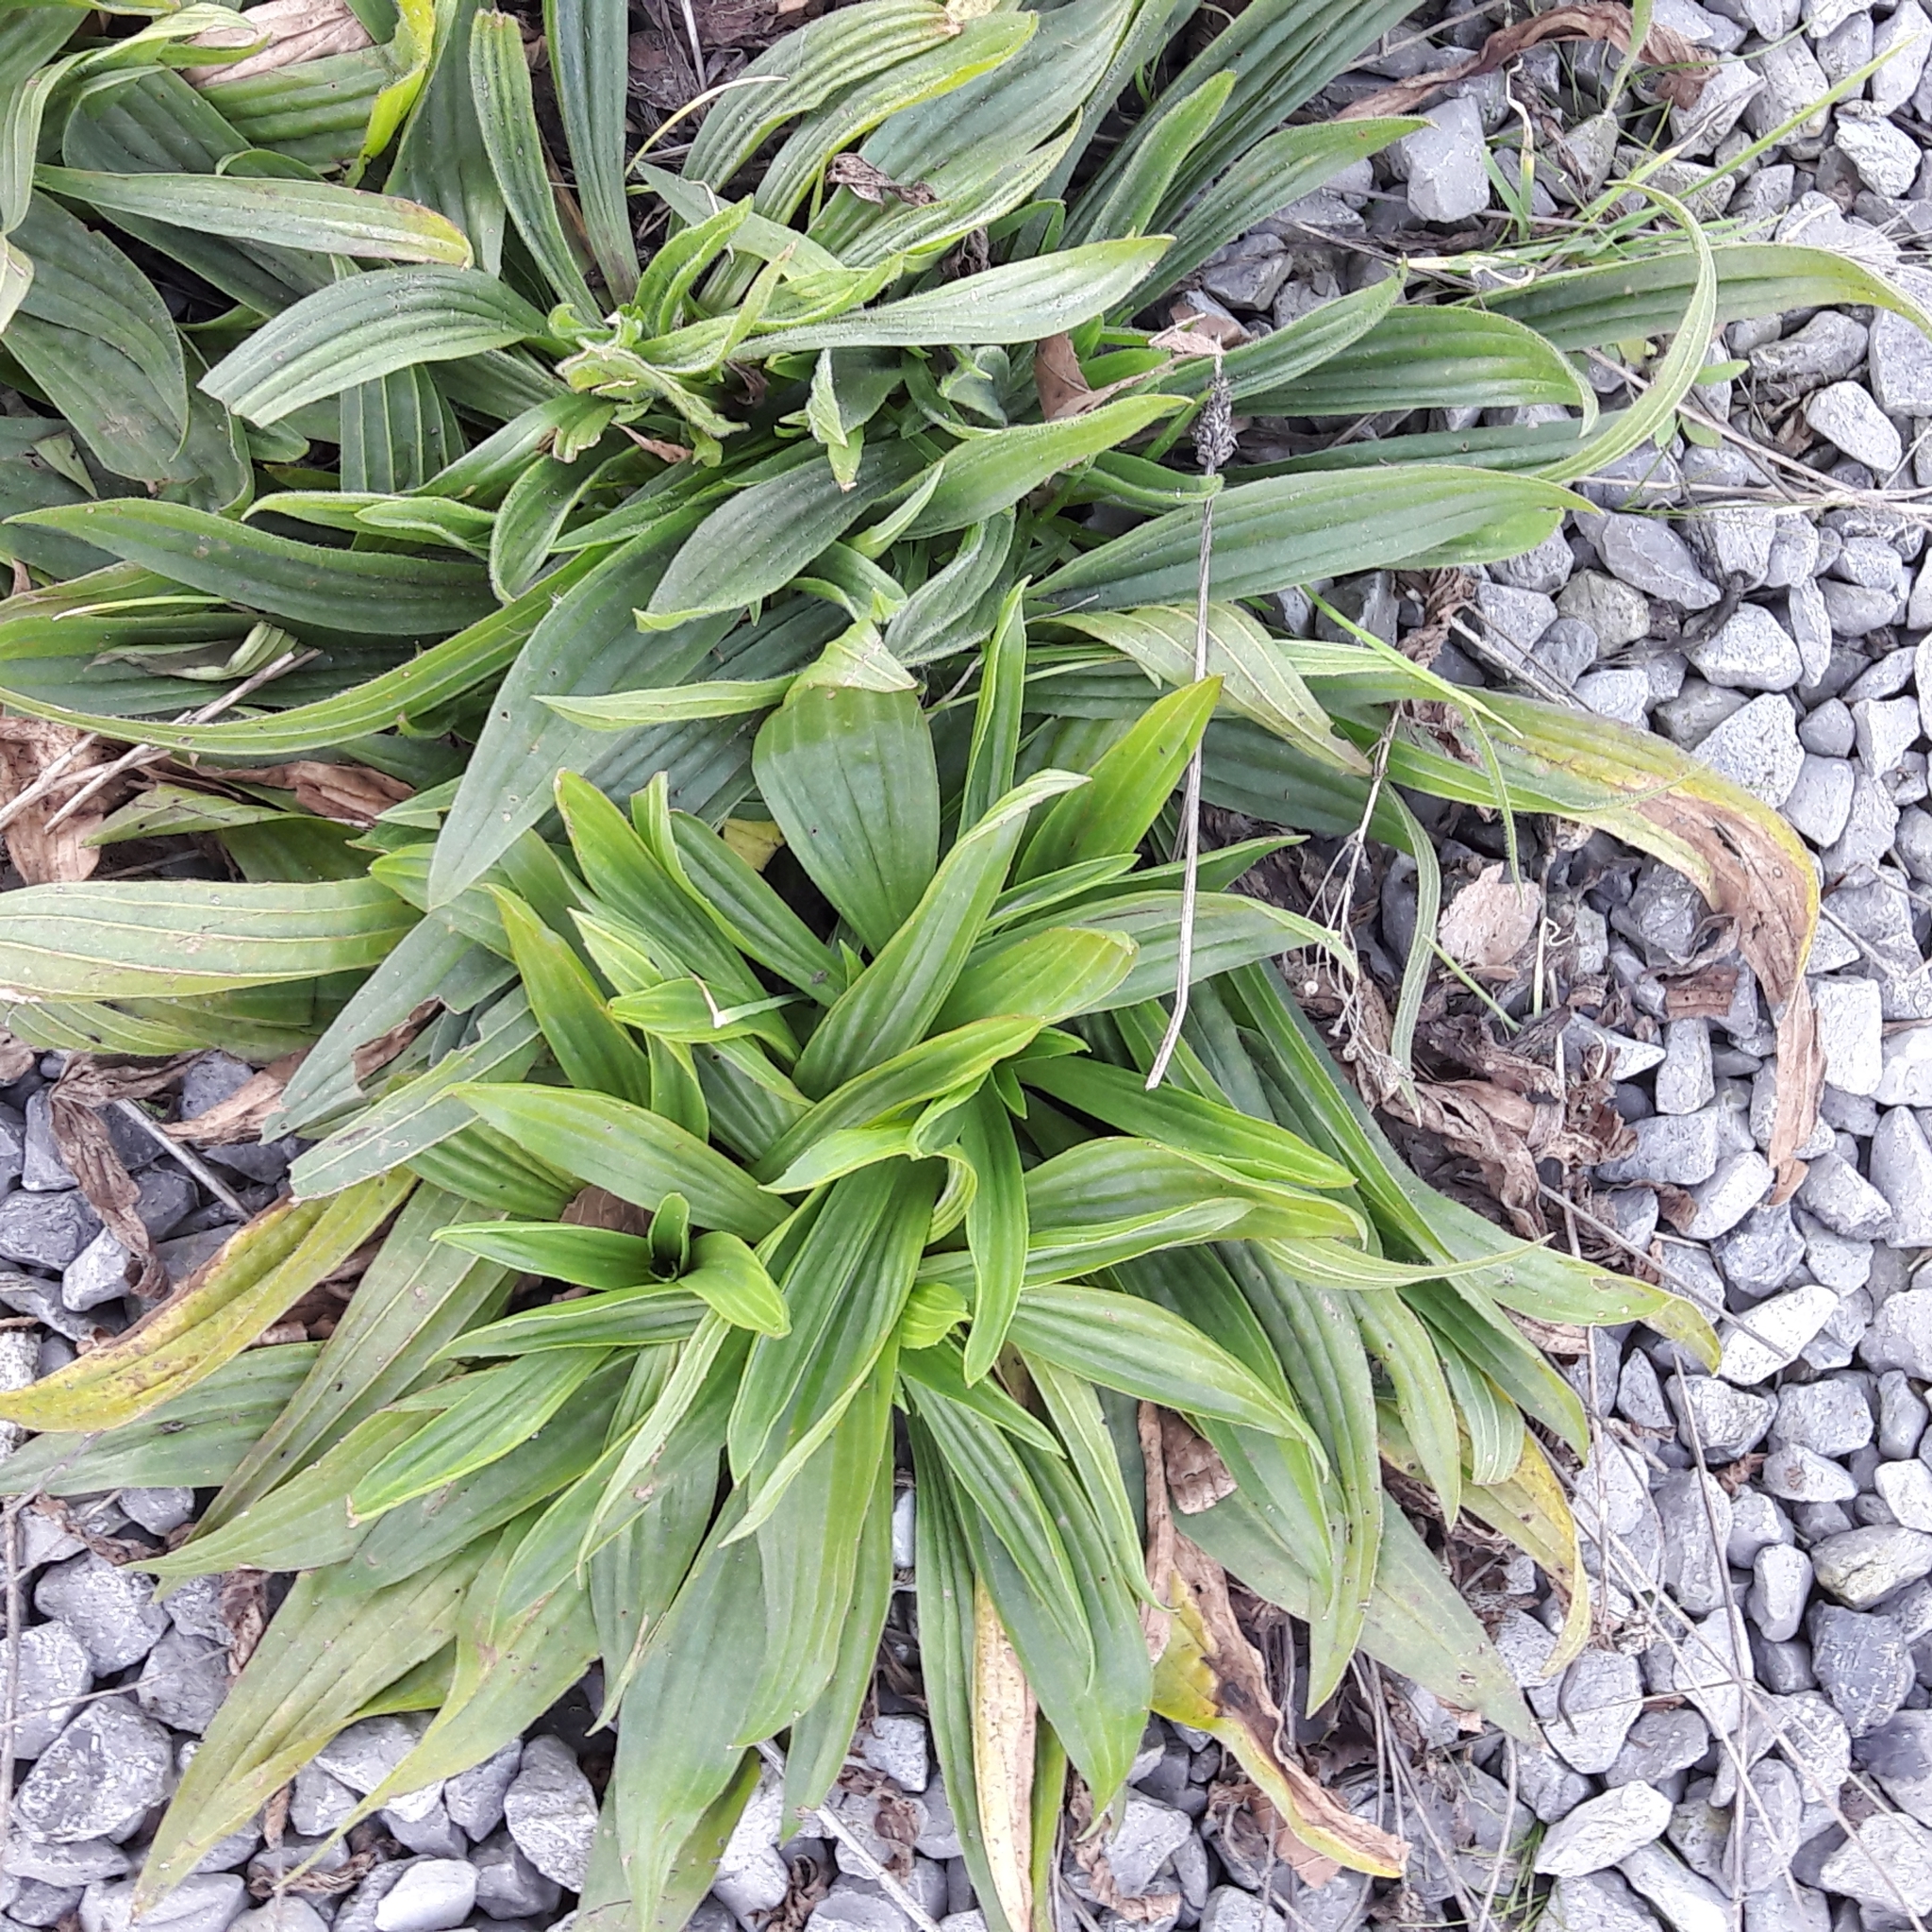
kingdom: Plantae
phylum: Tracheophyta
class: Magnoliopsida
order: Lamiales
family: Plantaginaceae
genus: Plantago
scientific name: Plantago lanceolata
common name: Ribwort plantain
